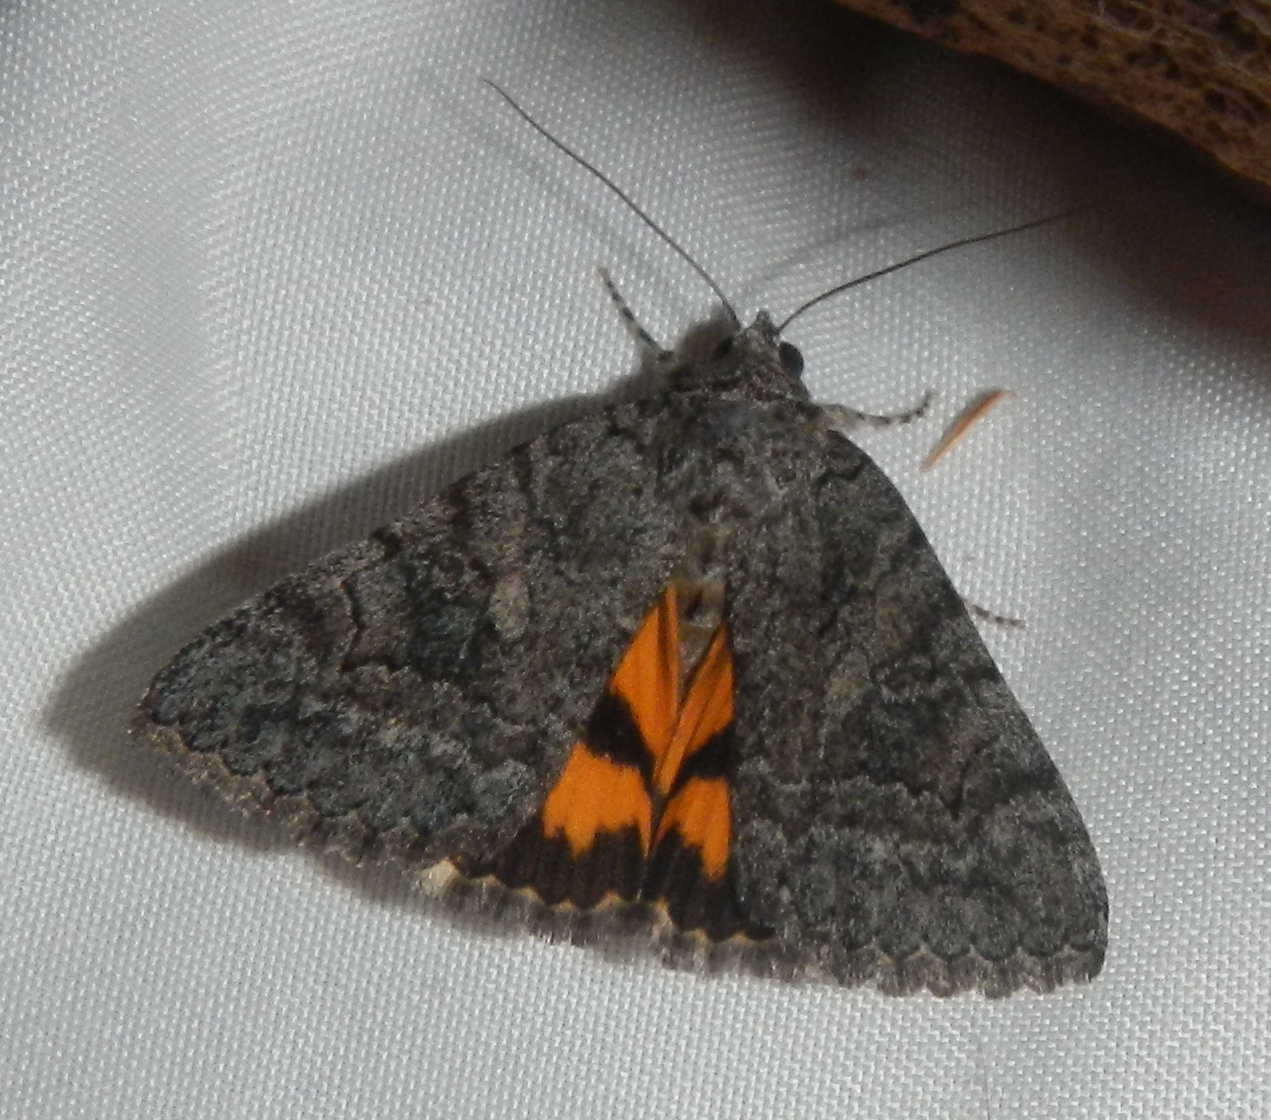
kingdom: Animalia
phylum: Arthropoda
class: Insecta
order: Lepidoptera
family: Erebidae
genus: Catocala
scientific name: Catocala chelidonia
